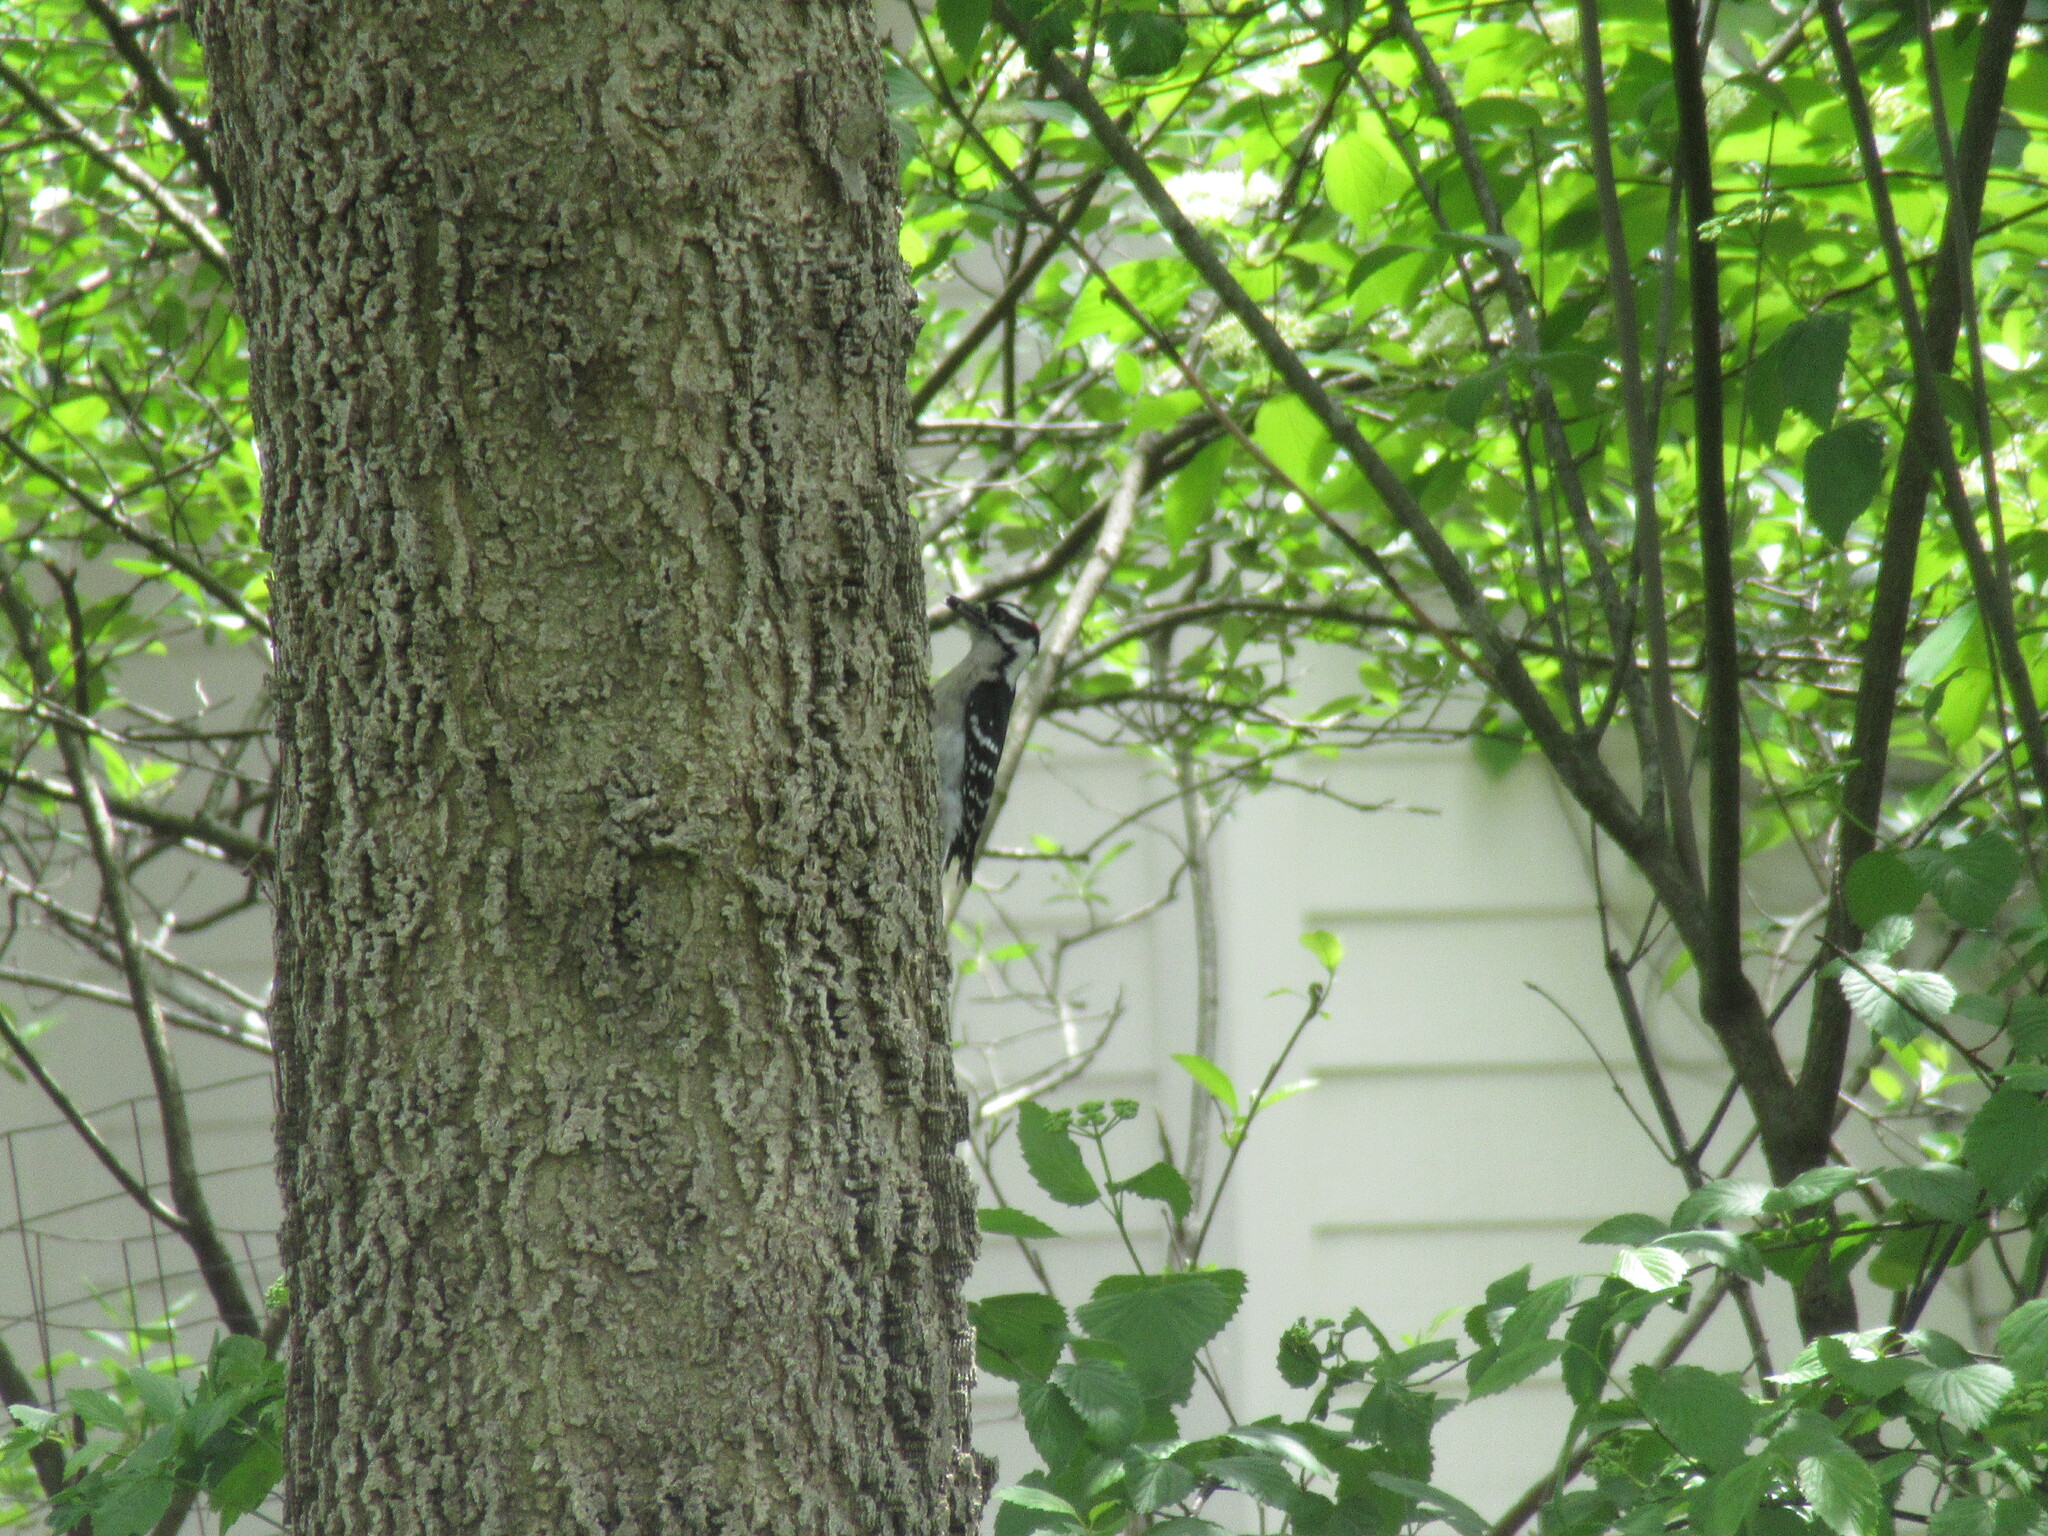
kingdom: Animalia
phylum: Chordata
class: Aves
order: Piciformes
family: Picidae
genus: Dryobates
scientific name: Dryobates pubescens
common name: Downy woodpecker
